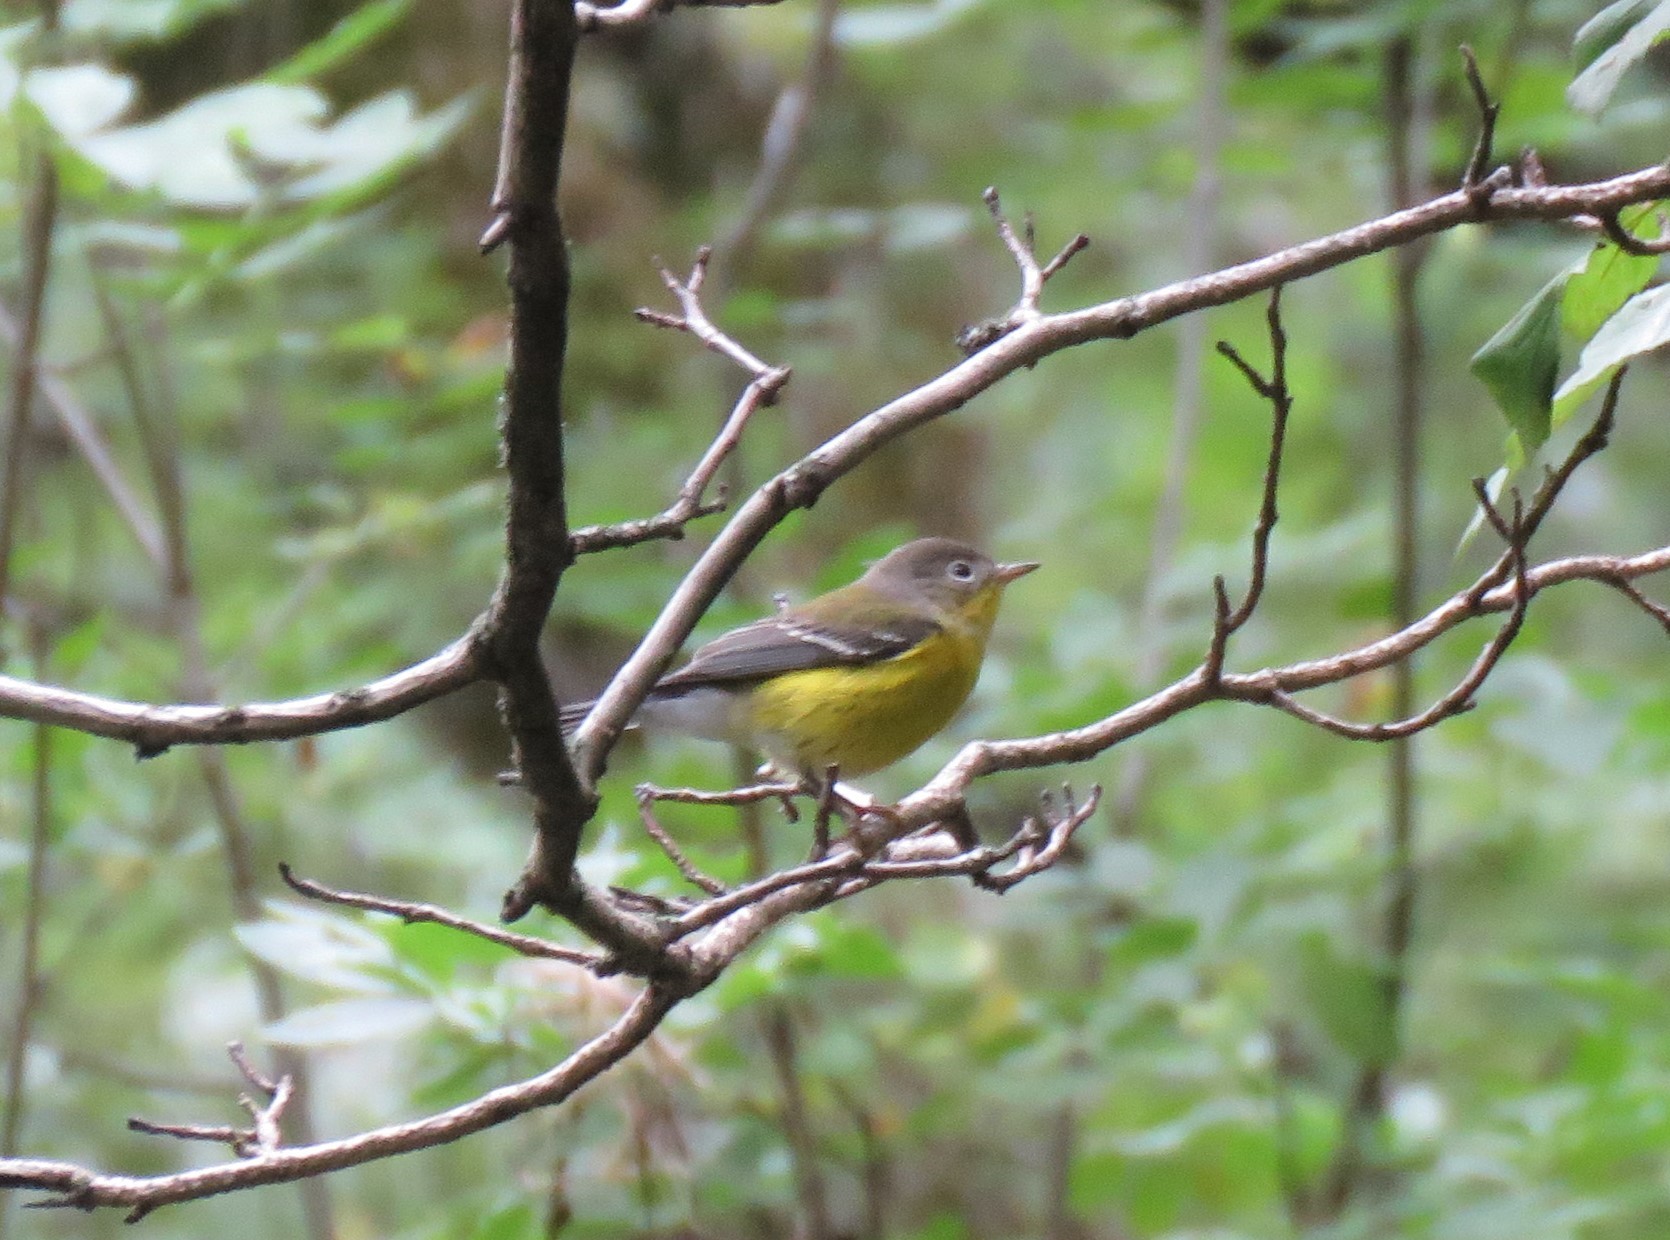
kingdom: Animalia
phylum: Chordata
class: Aves
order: Passeriformes
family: Parulidae
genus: Setophaga
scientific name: Setophaga magnolia
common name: Magnolia warbler
